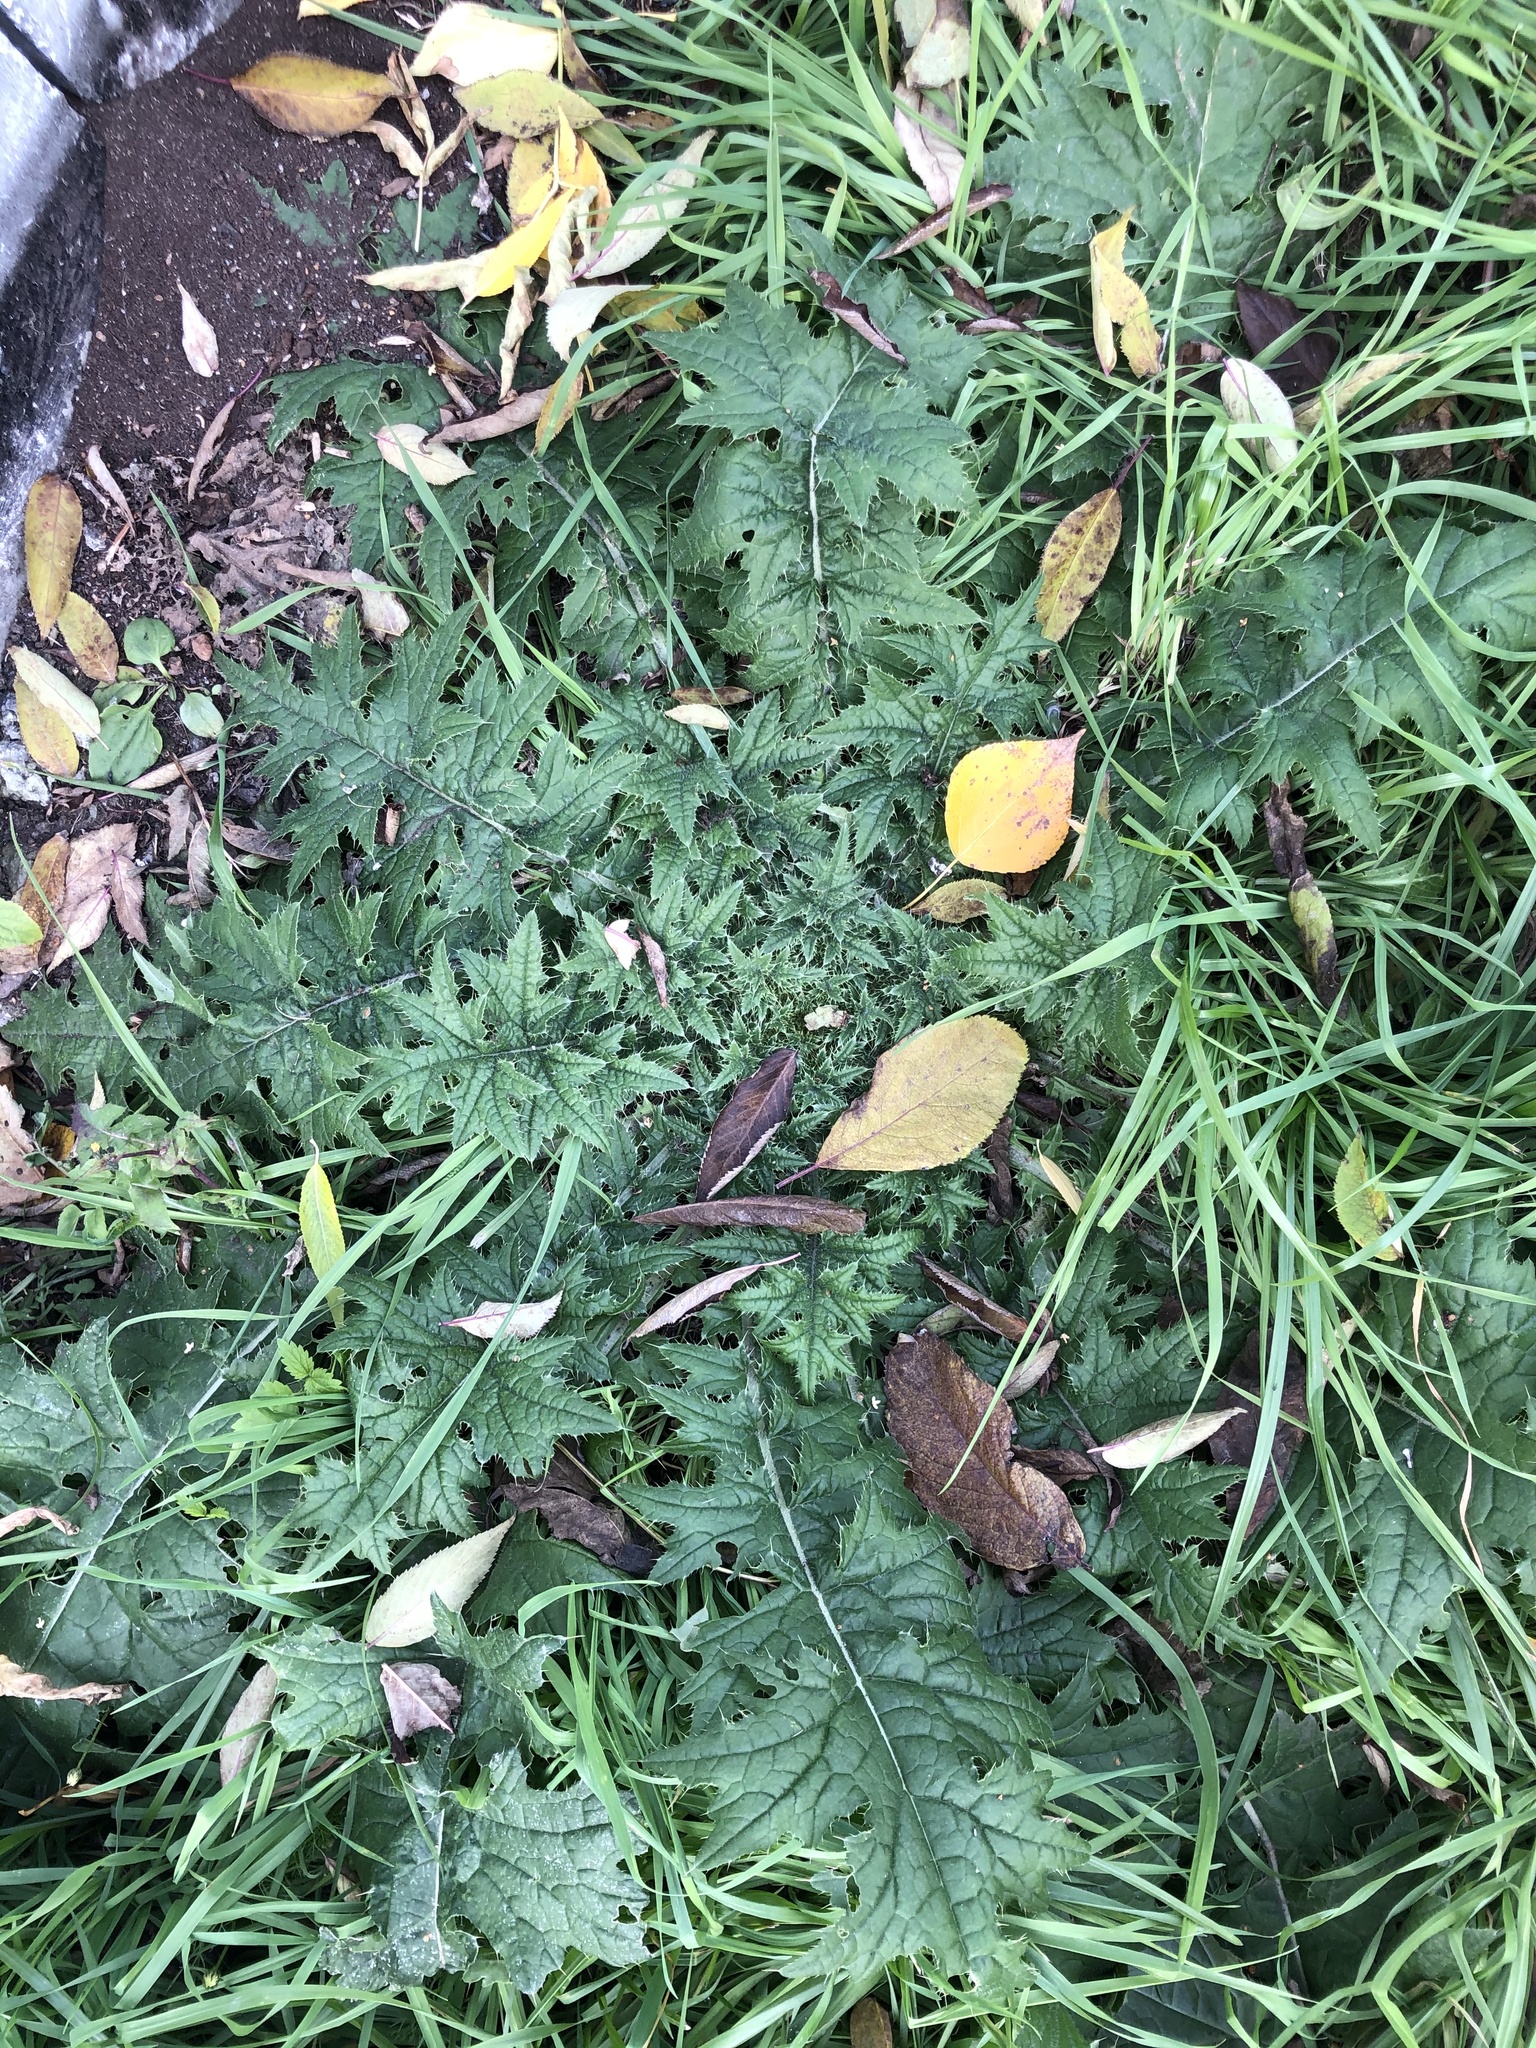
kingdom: Plantae
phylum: Tracheophyta
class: Magnoliopsida
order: Asterales
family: Asteraceae
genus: Cirsium
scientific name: Cirsium vulgare
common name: Bull thistle
